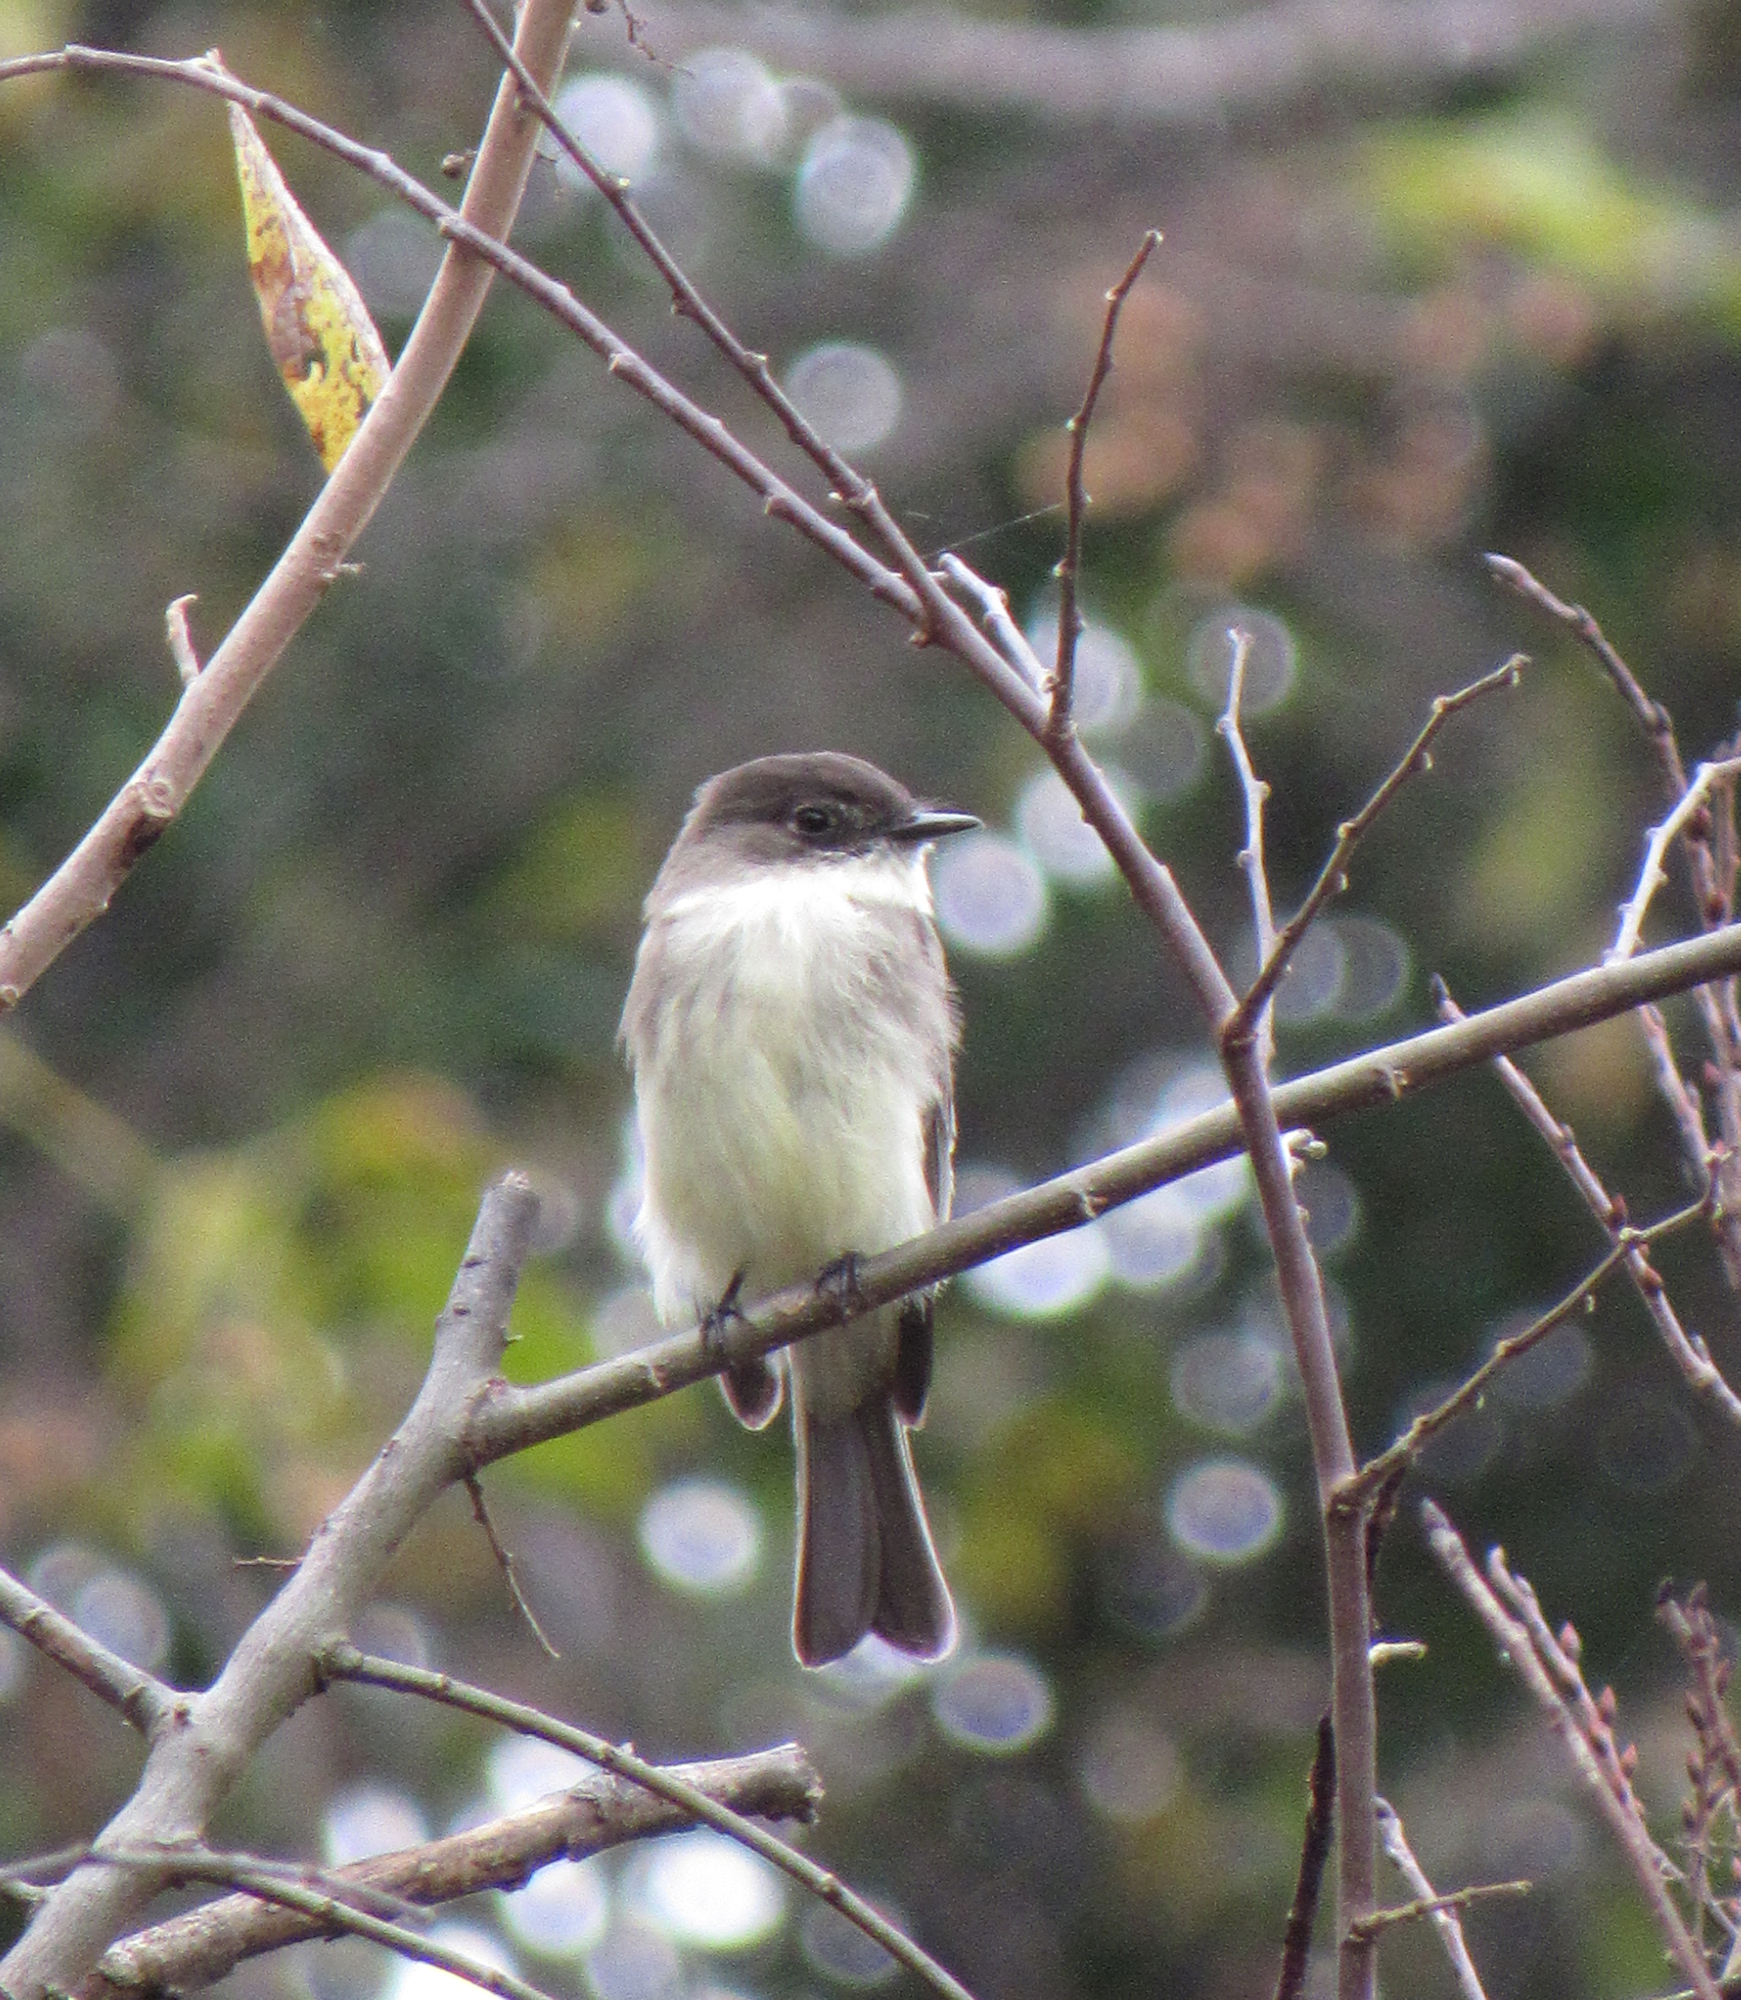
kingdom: Animalia
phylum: Chordata
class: Aves
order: Passeriformes
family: Tyrannidae
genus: Sayornis
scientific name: Sayornis phoebe
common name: Eastern phoebe
